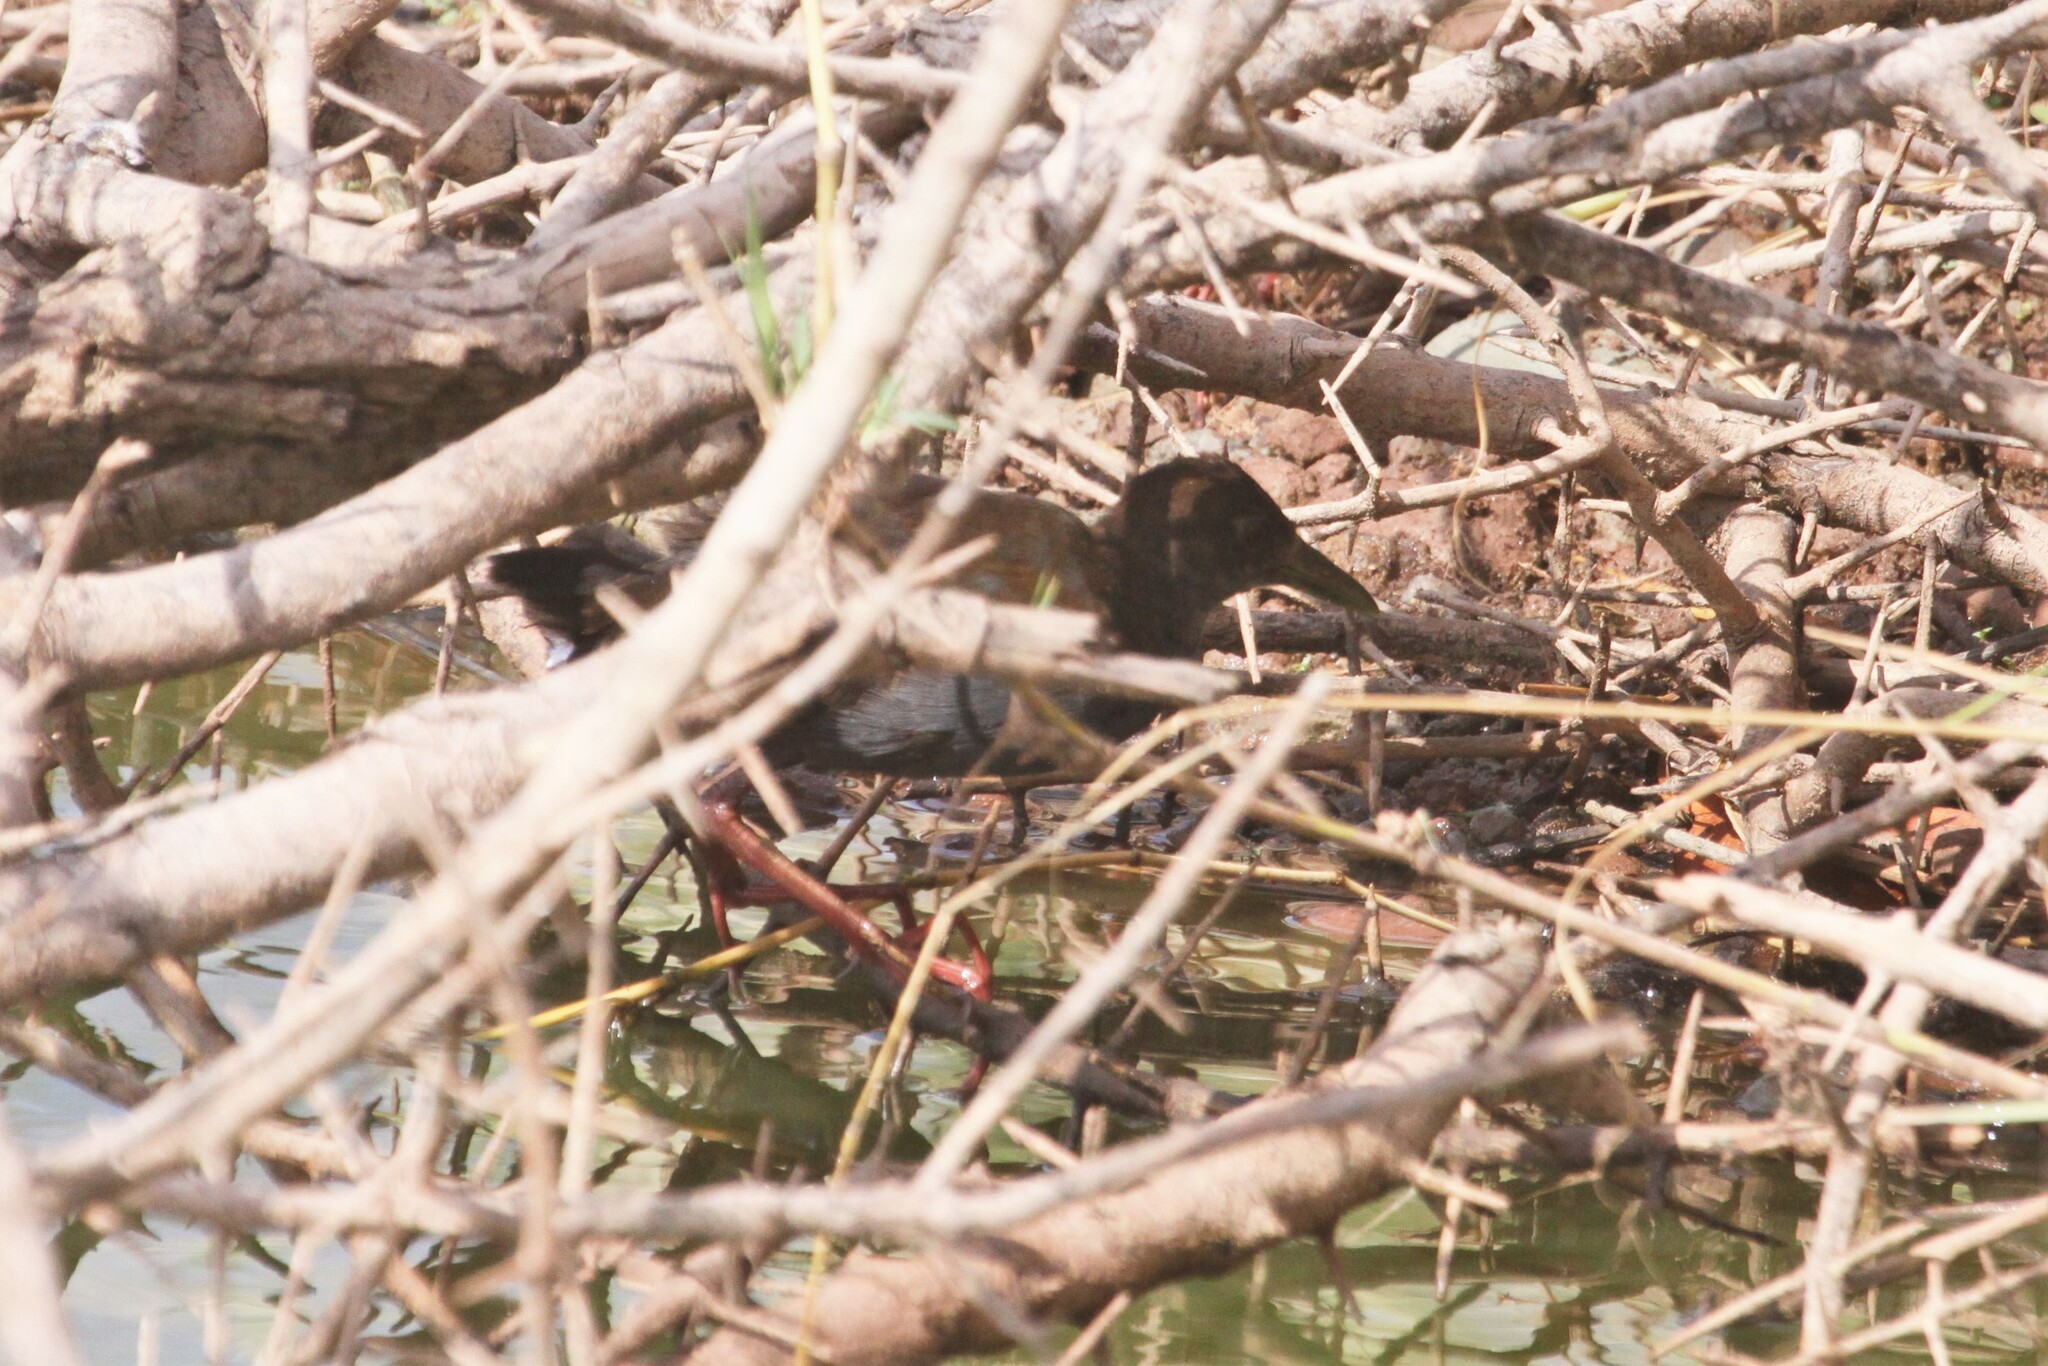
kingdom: Animalia
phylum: Chordata
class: Aves
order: Gruiformes
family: Rallidae
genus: Amaurornis
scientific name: Amaurornis flavirostra
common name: Black crake
